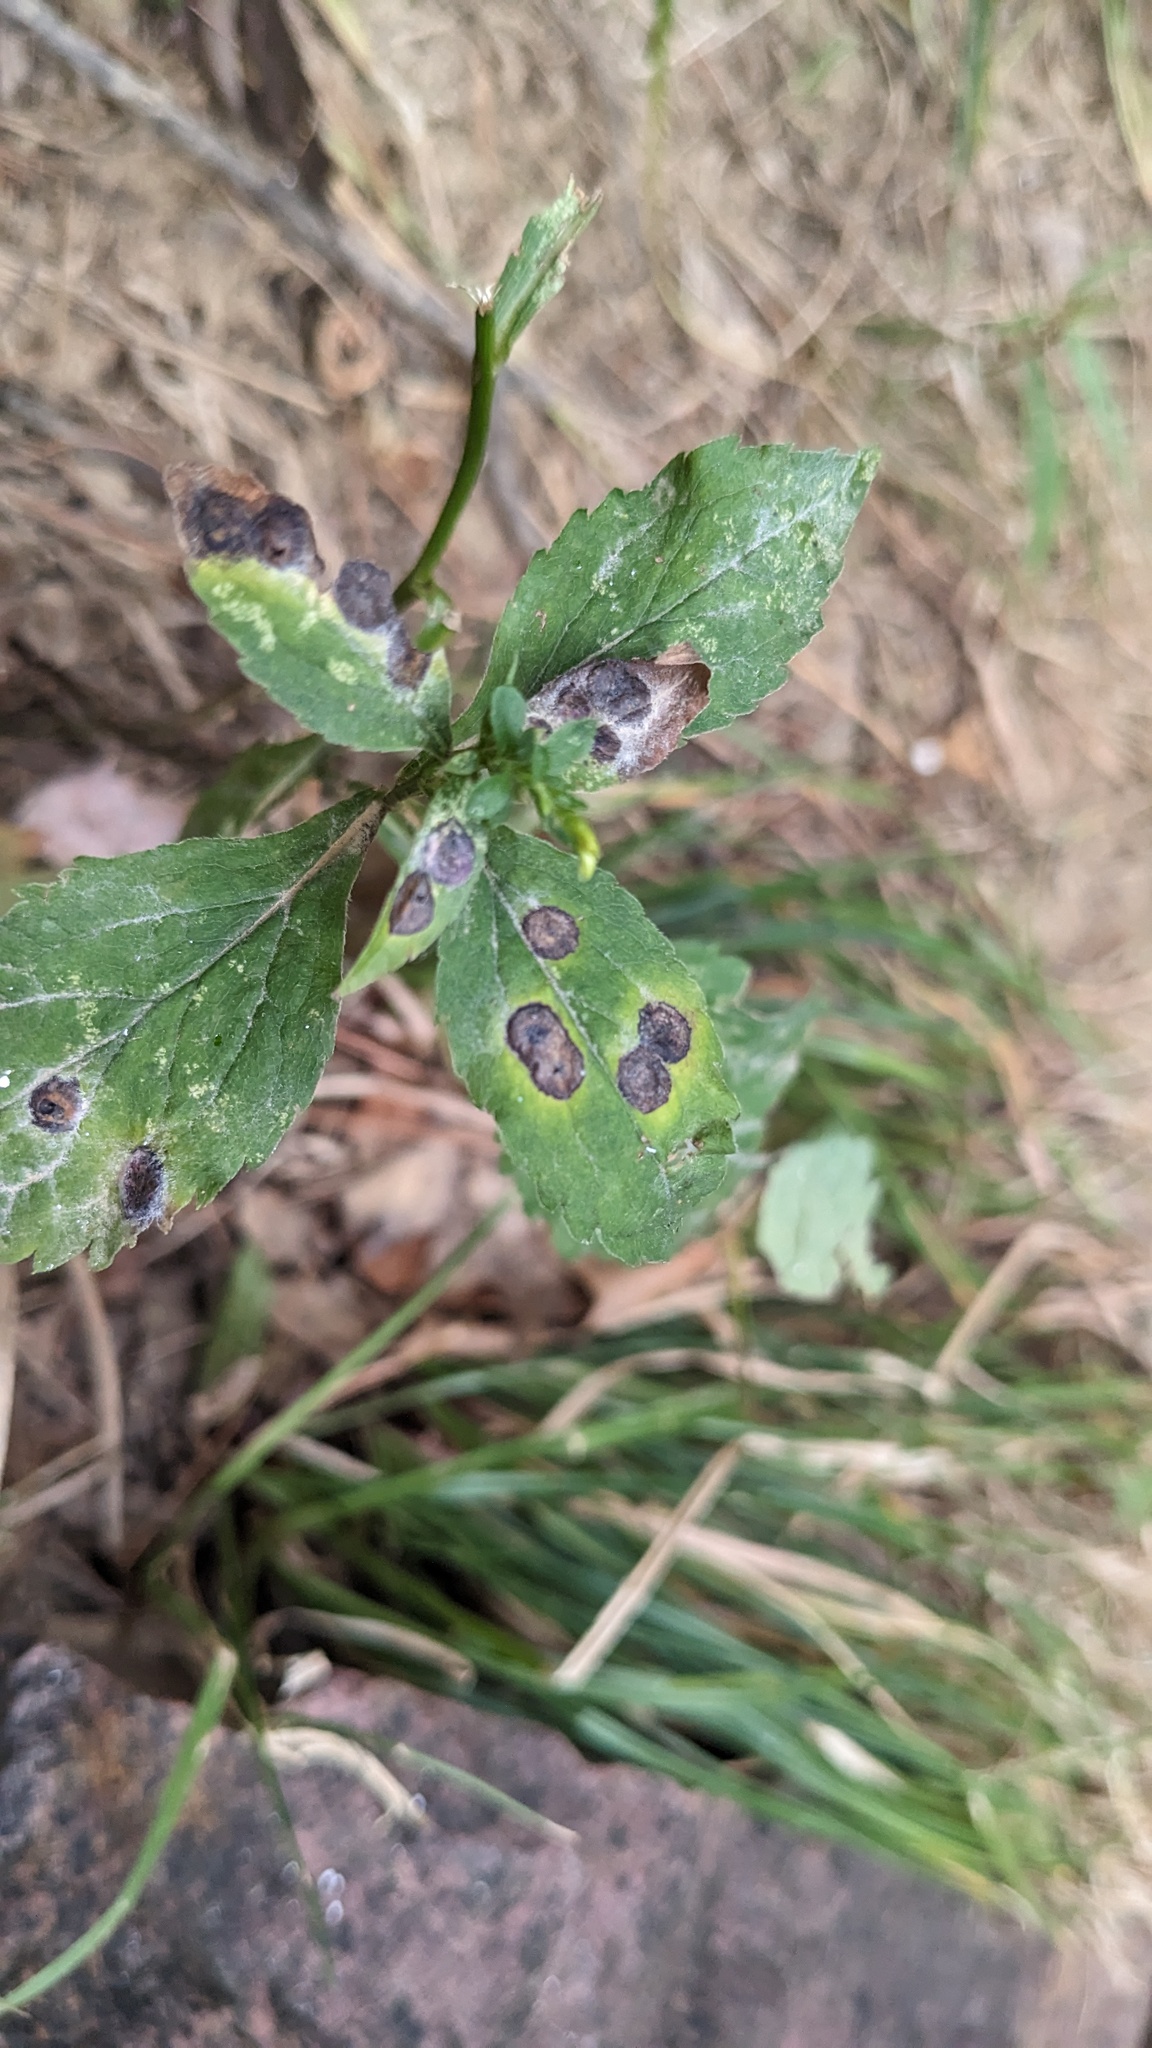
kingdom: Fungi
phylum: Ascomycota
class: Dothideomycetes
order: Botryosphaeriales
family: Botryosphaeriaceae
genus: Botryosphaeria
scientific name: Botryosphaeria dothidea
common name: Asteromyia gall midge fungus
